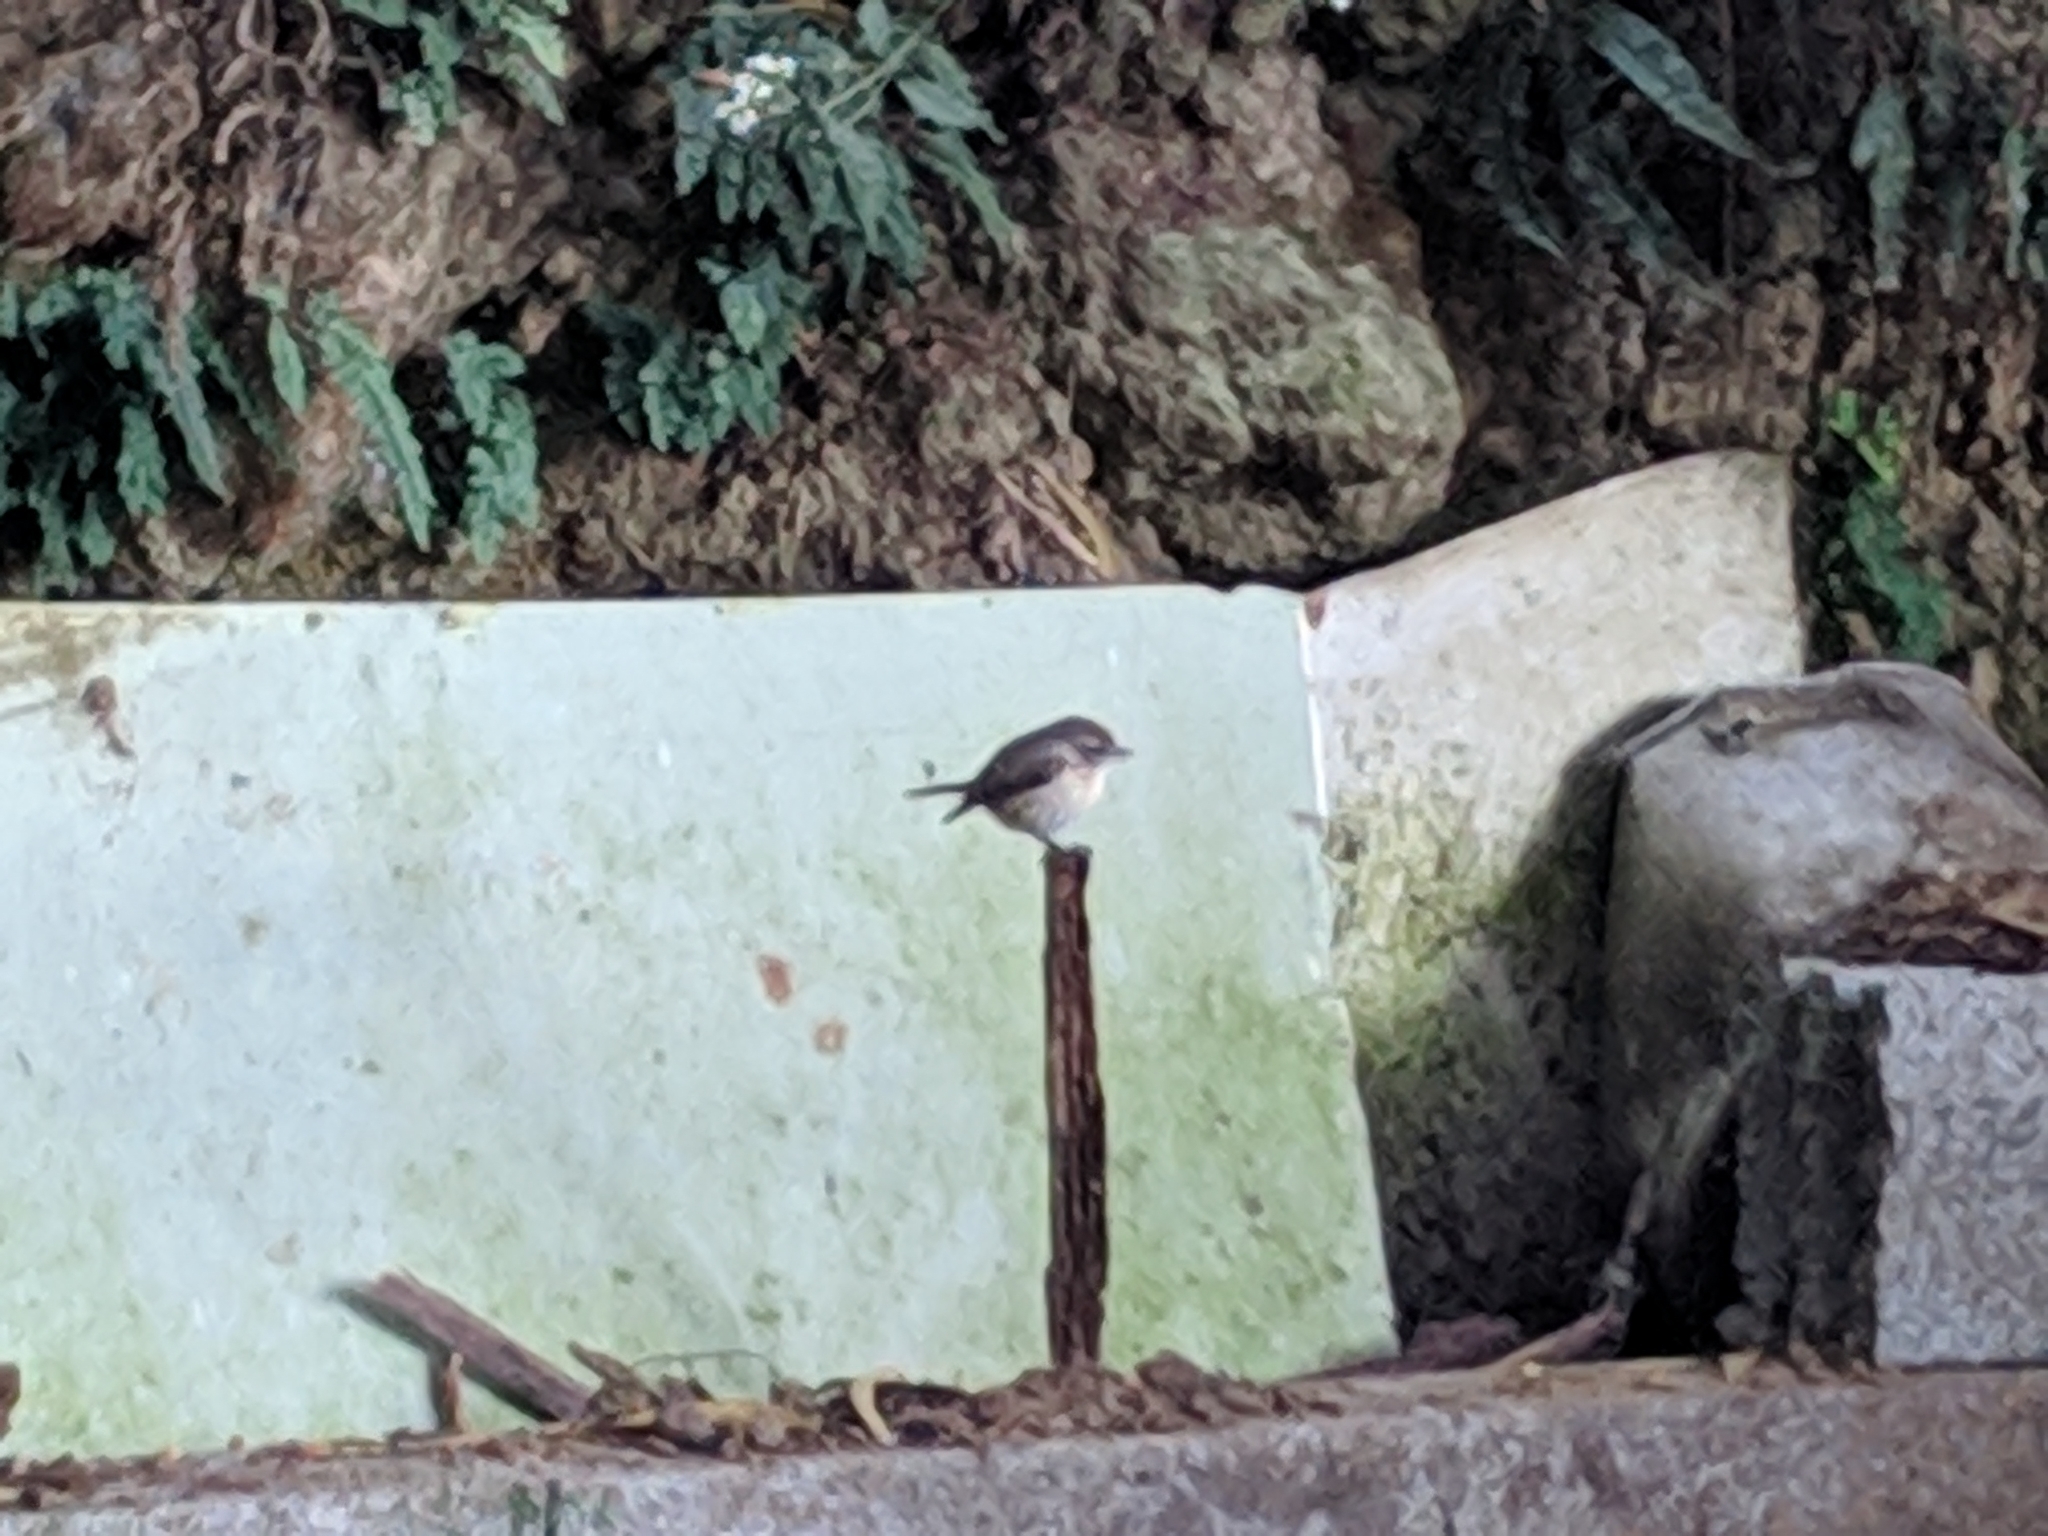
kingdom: Animalia
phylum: Chordata
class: Aves
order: Passeriformes
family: Muscicapidae
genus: Saxicola
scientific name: Saxicola tectes
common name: Reunion stonechat
